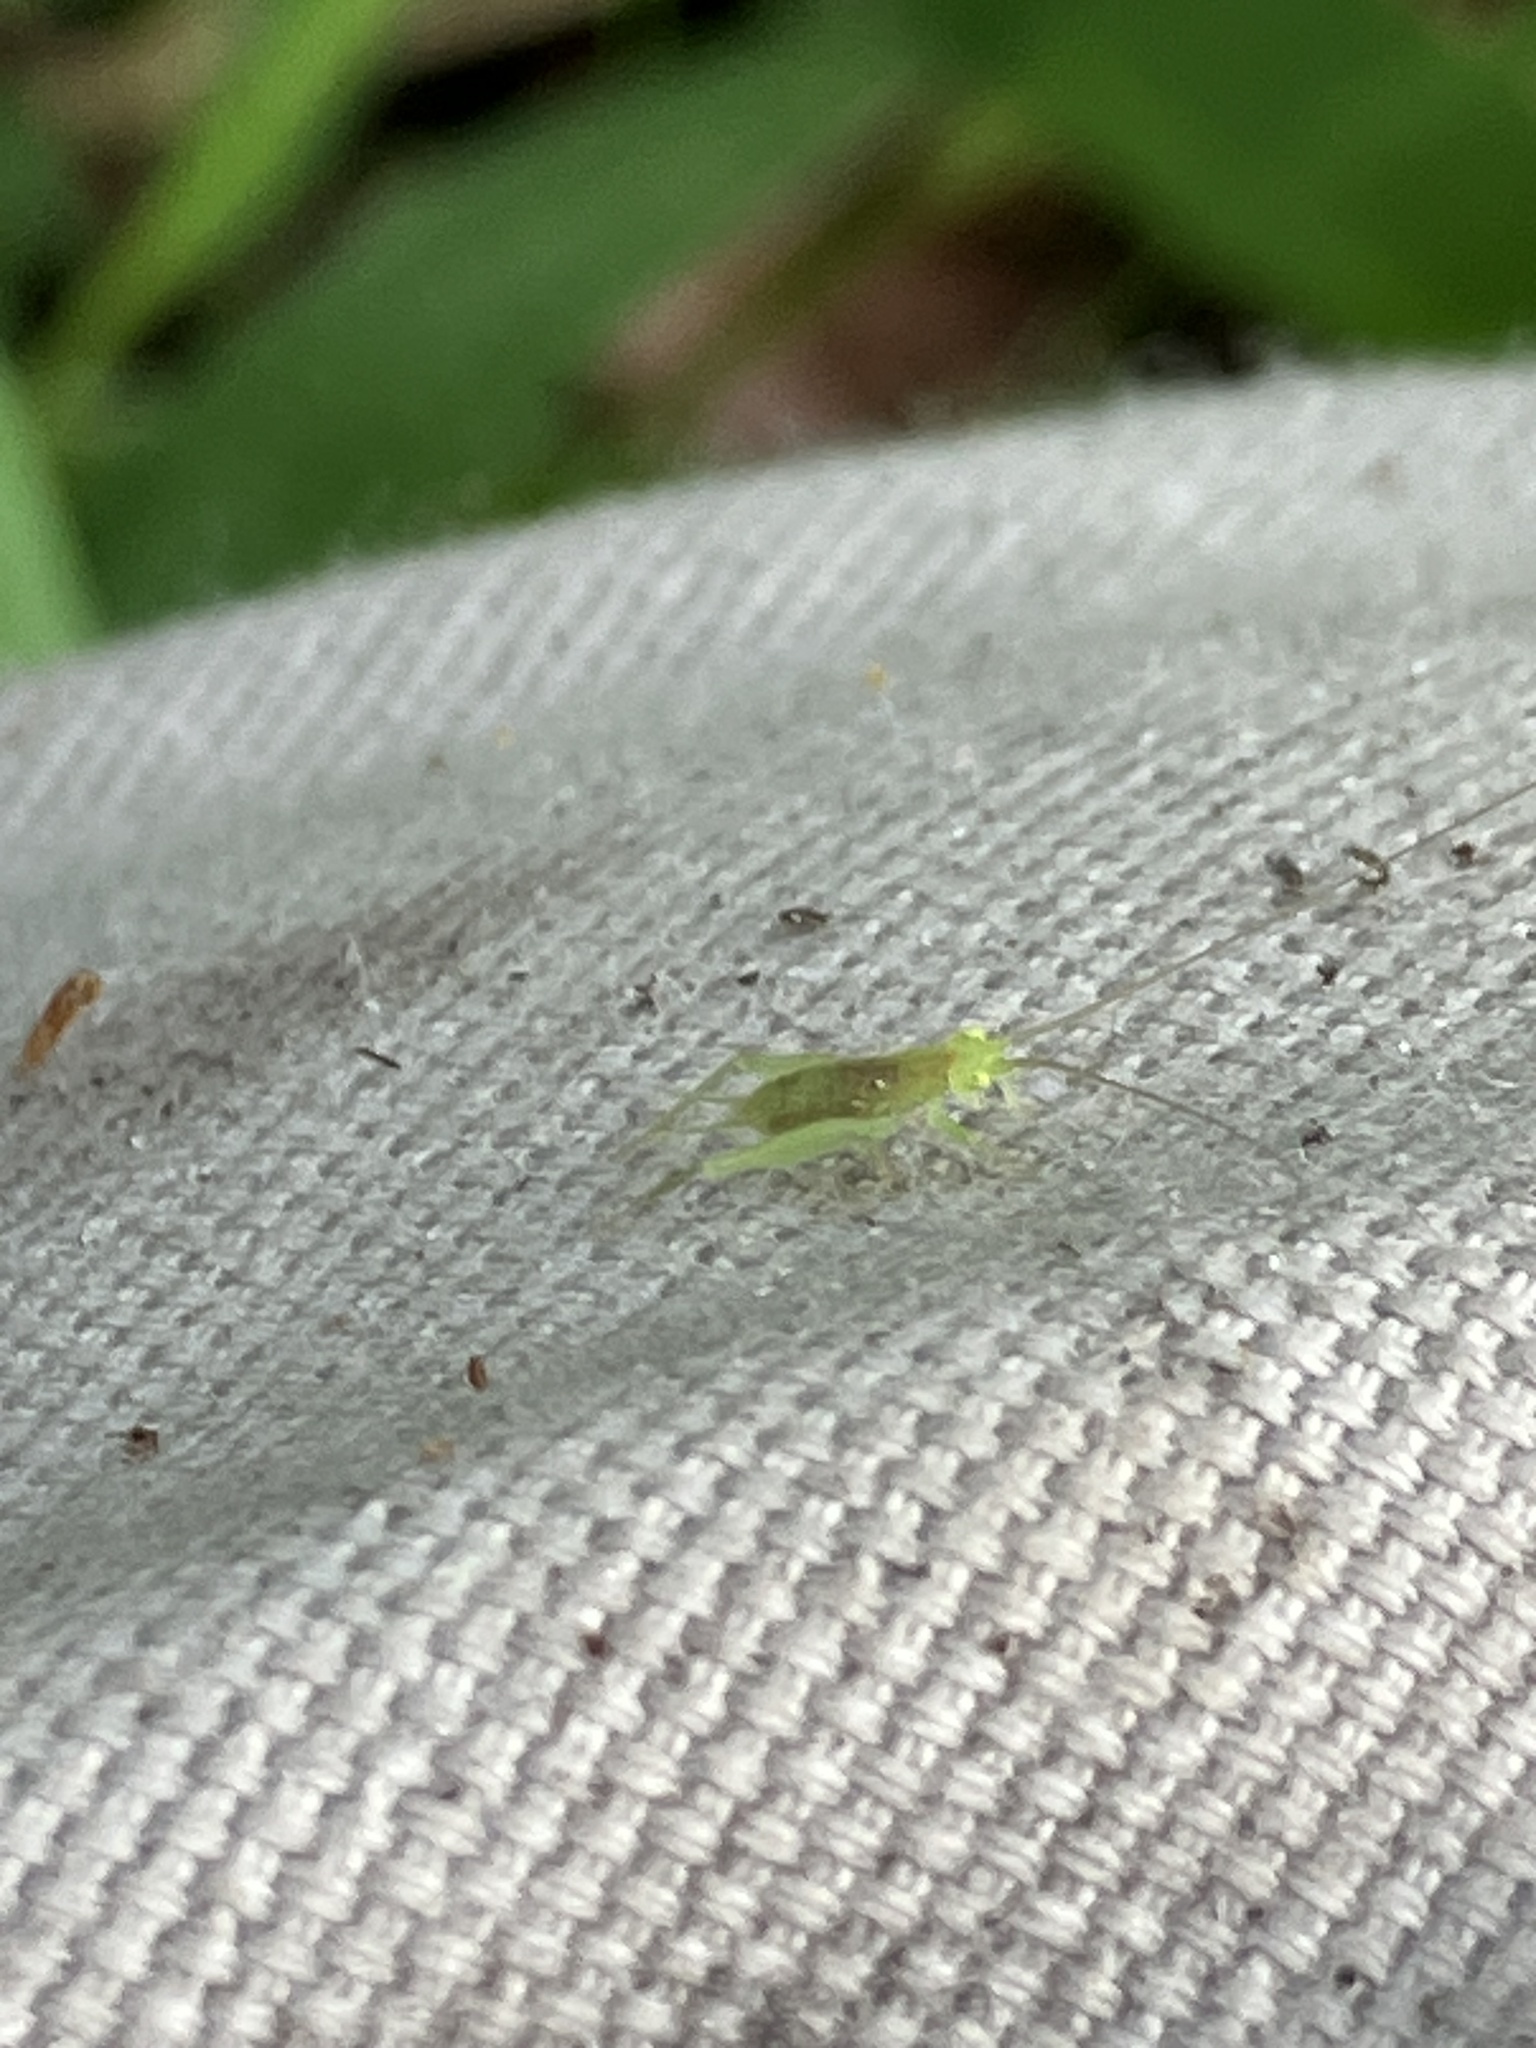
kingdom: Animalia
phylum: Arthropoda
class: Insecta
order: Orthoptera
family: Trigonidiidae
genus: Cyrtoxipha
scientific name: Cyrtoxipha
